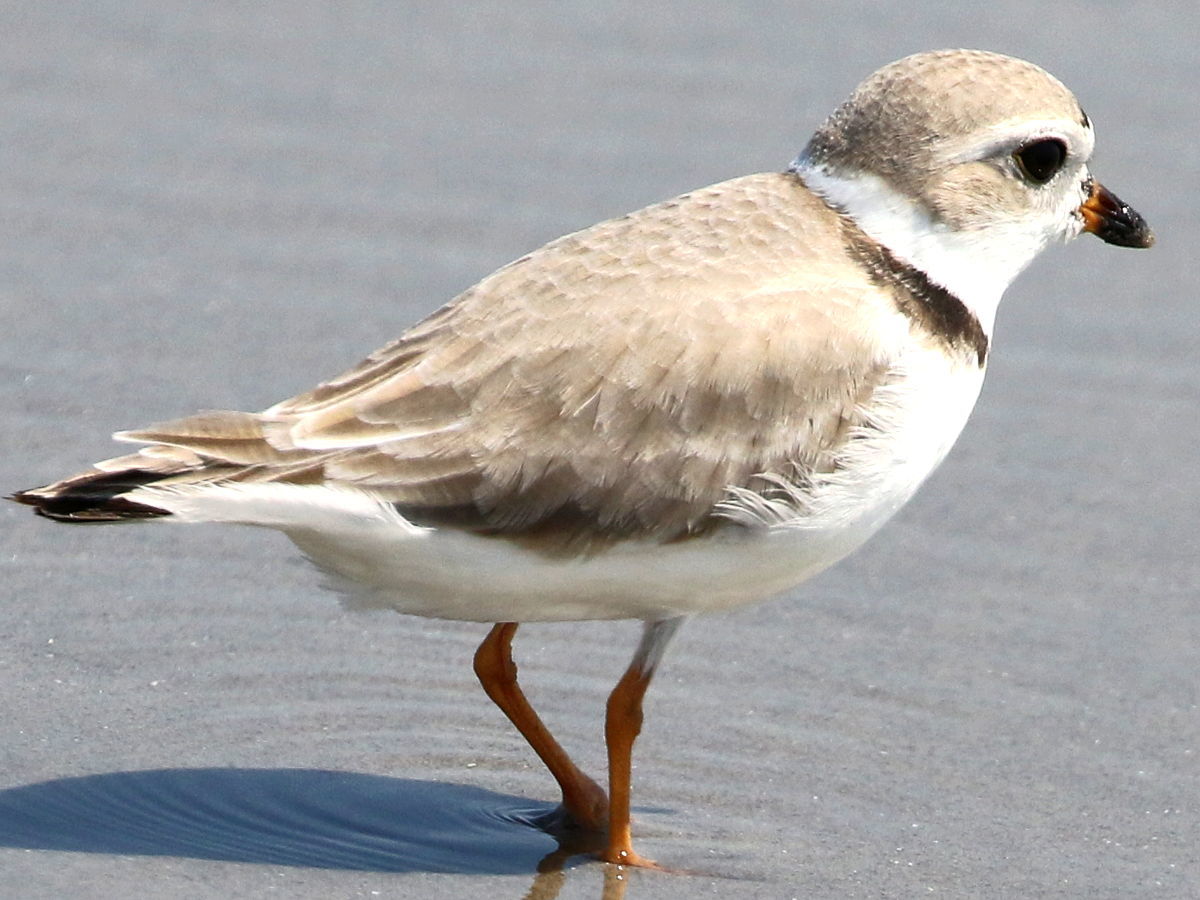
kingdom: Animalia
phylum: Chordata
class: Aves
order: Charadriiformes
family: Charadriidae
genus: Charadrius
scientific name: Charadrius melodus
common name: Piping plover
